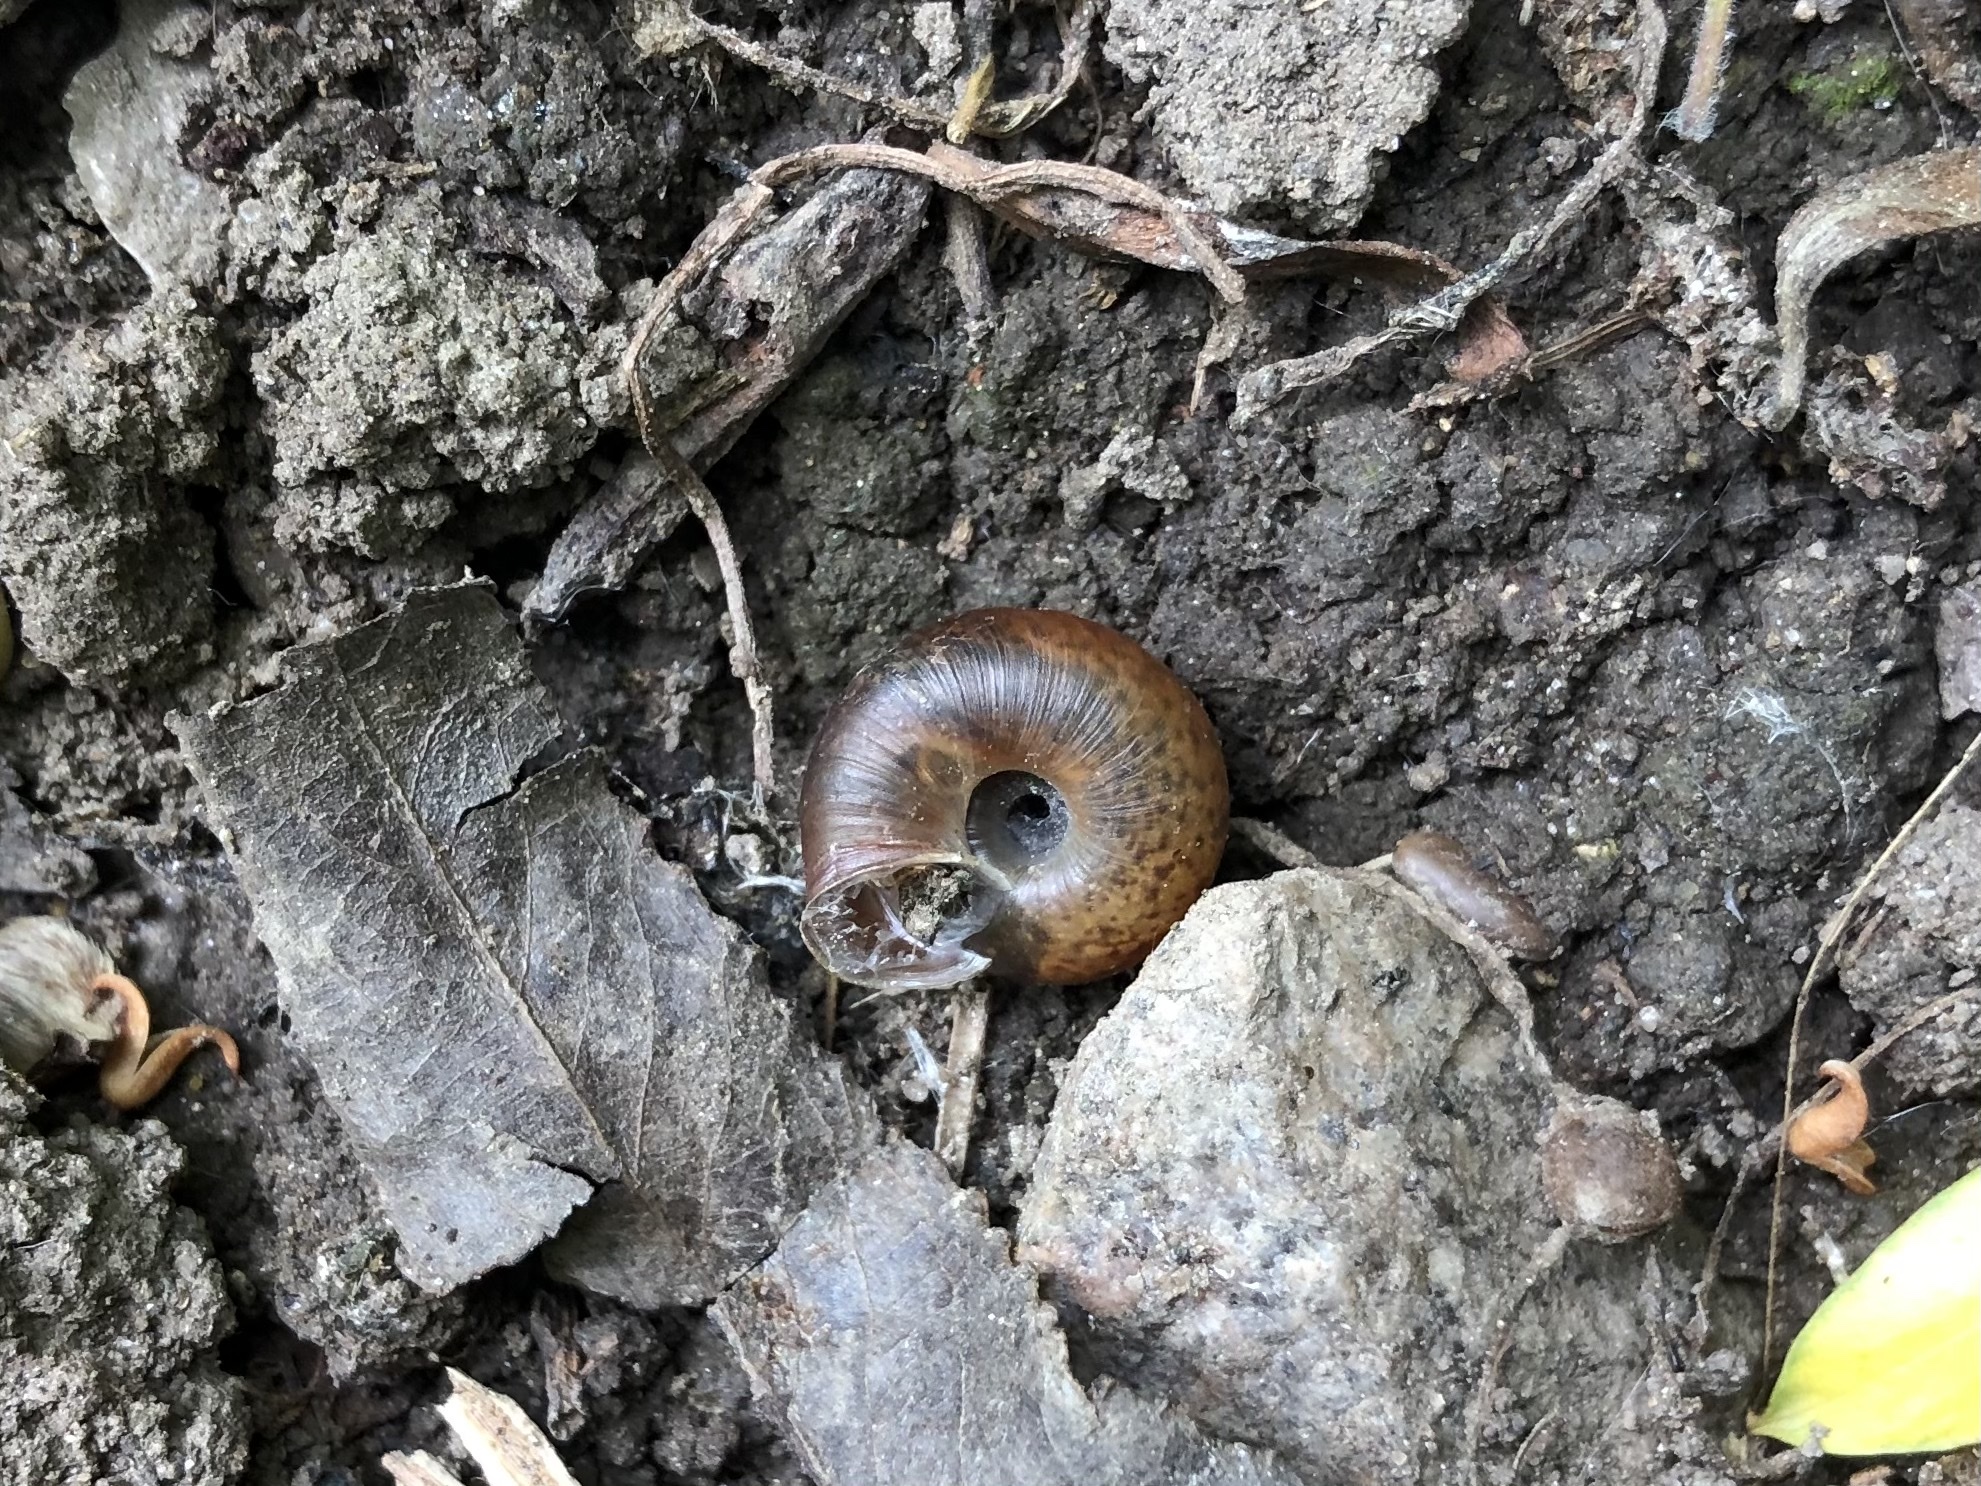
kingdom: Animalia
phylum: Mollusca
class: Gastropoda
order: Stylommatophora
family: Hygromiidae
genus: Urticicola
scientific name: Urticicola umbrosus
